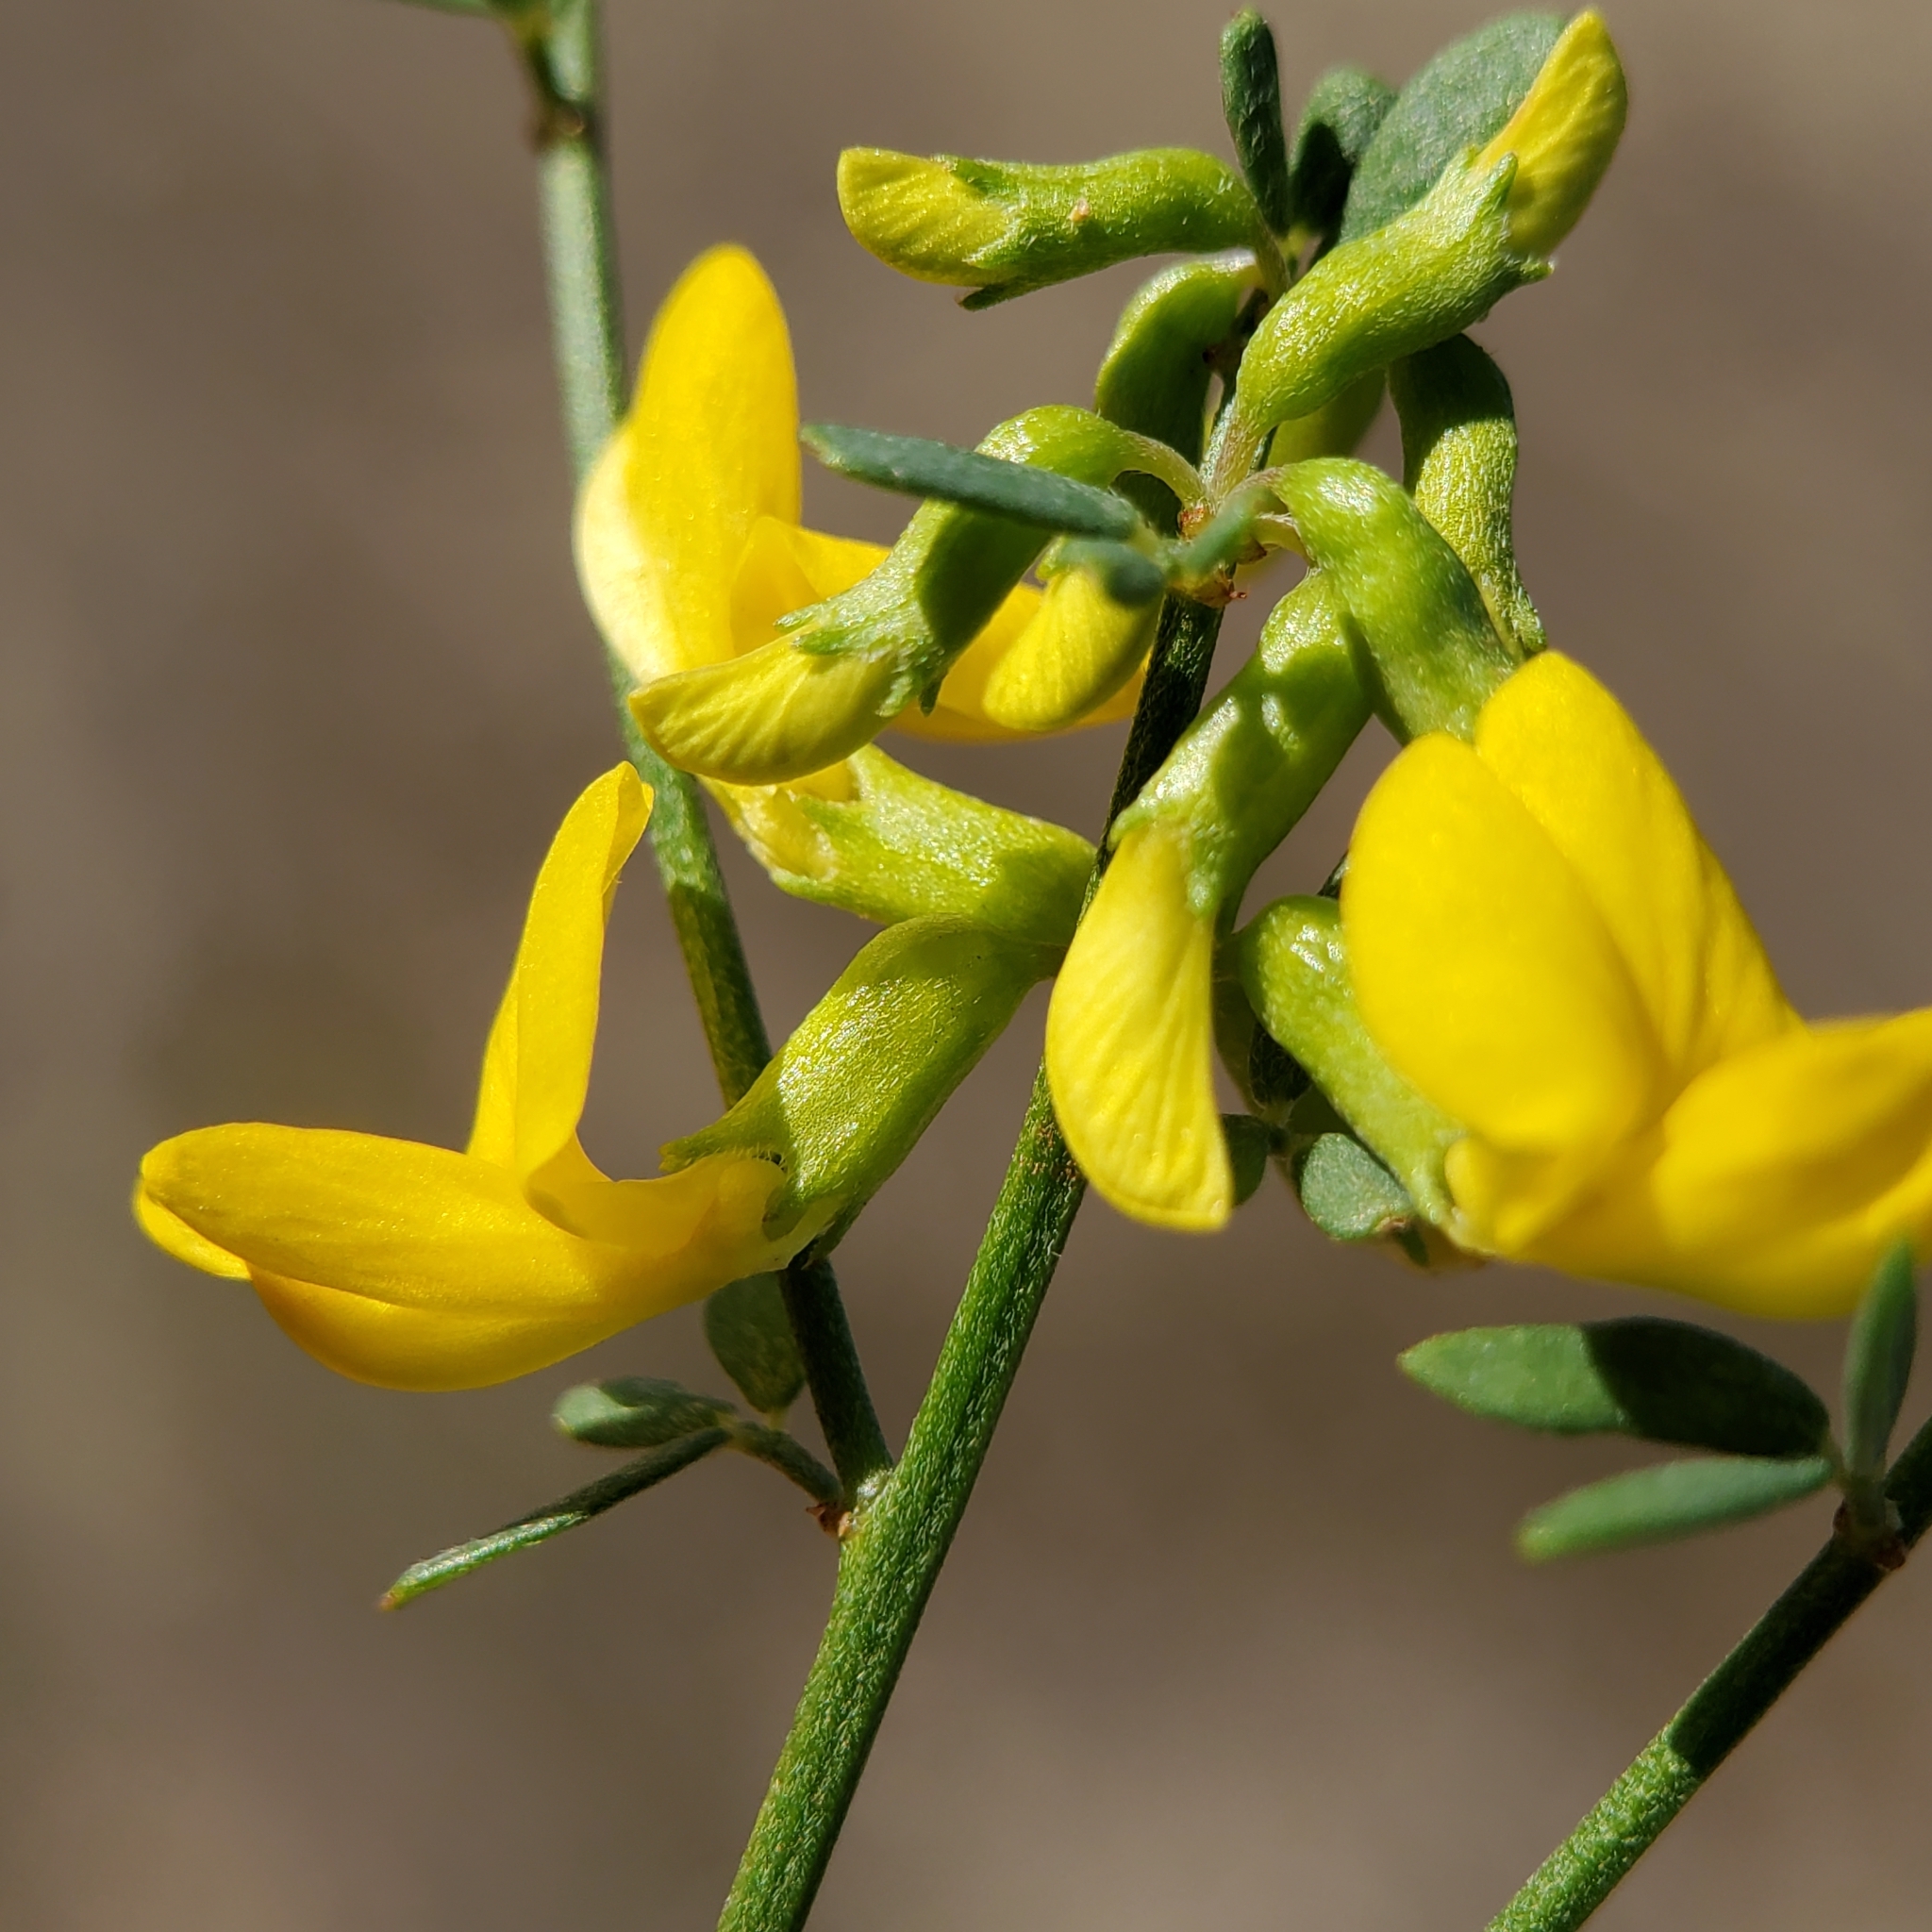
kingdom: Plantae
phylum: Tracheophyta
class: Magnoliopsida
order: Fabales
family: Fabaceae
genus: Acmispon
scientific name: Acmispon glaber
